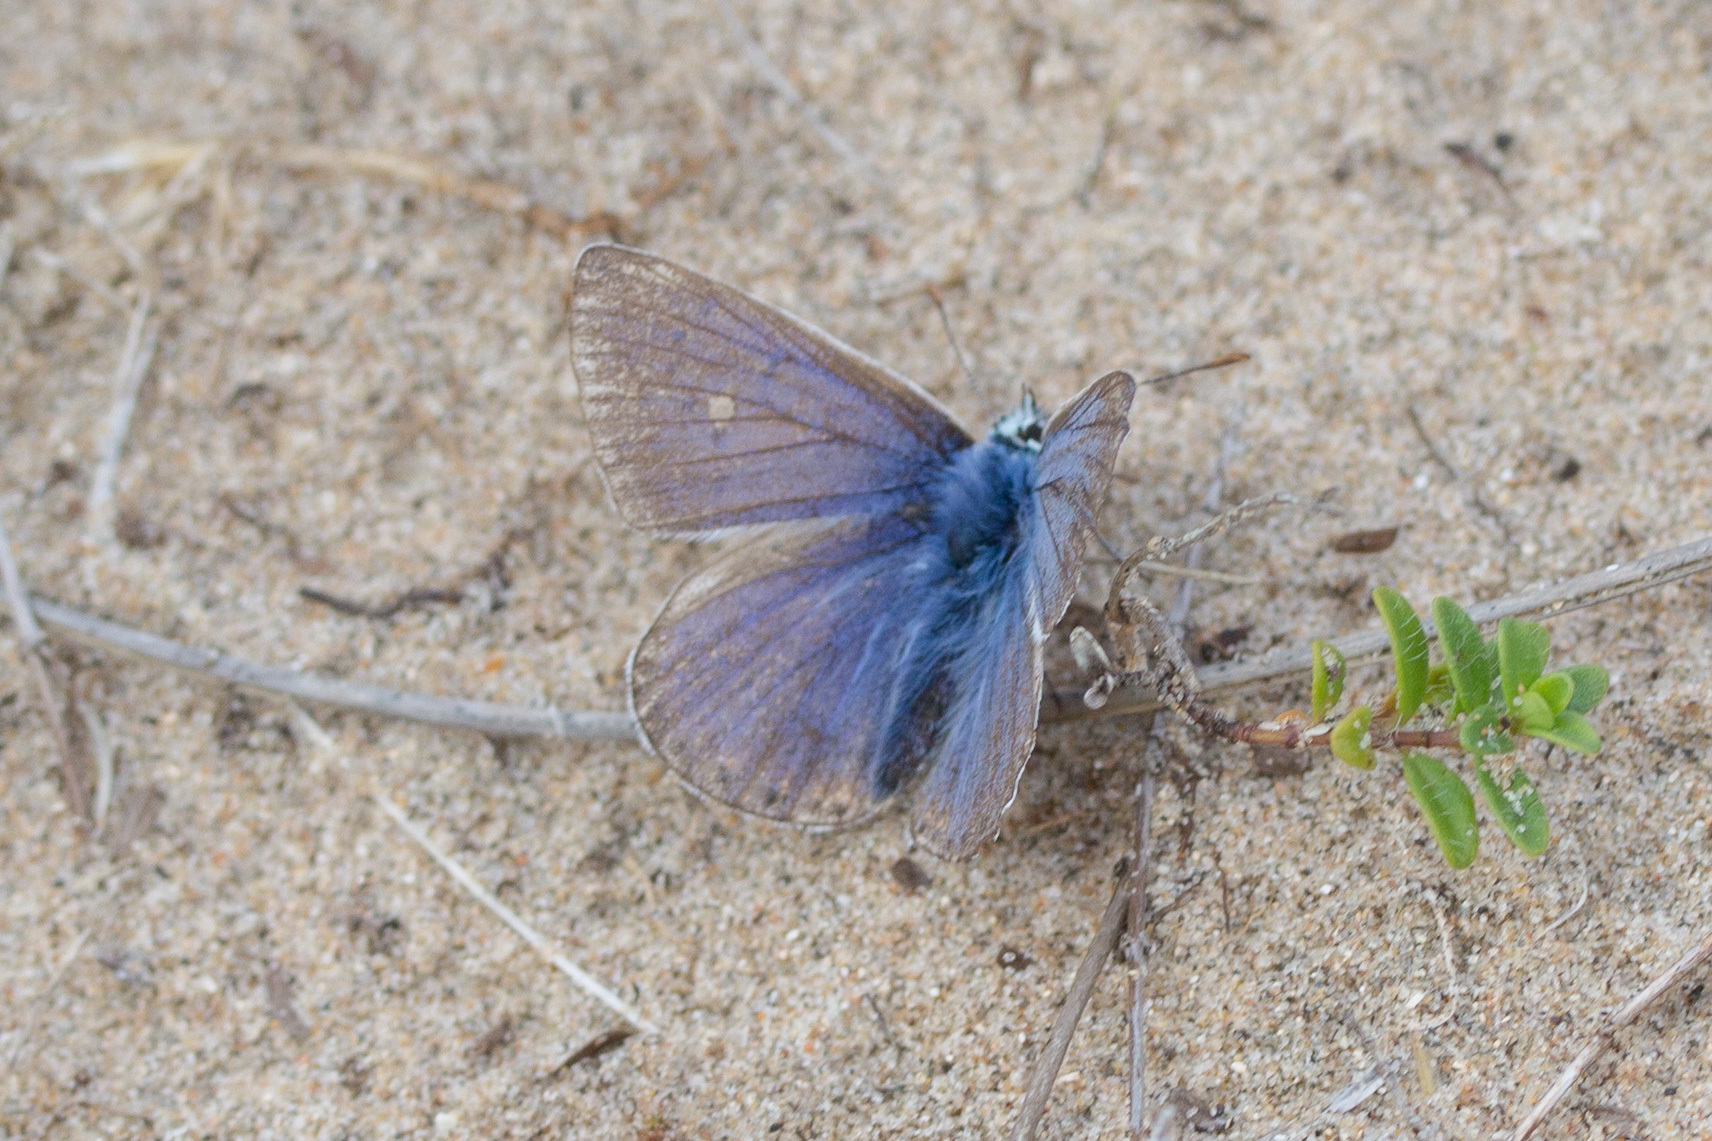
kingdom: Animalia
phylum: Arthropoda
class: Insecta
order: Lepidoptera
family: Lycaenidae
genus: Polyommatus
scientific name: Polyommatus icarus
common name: Common blue
